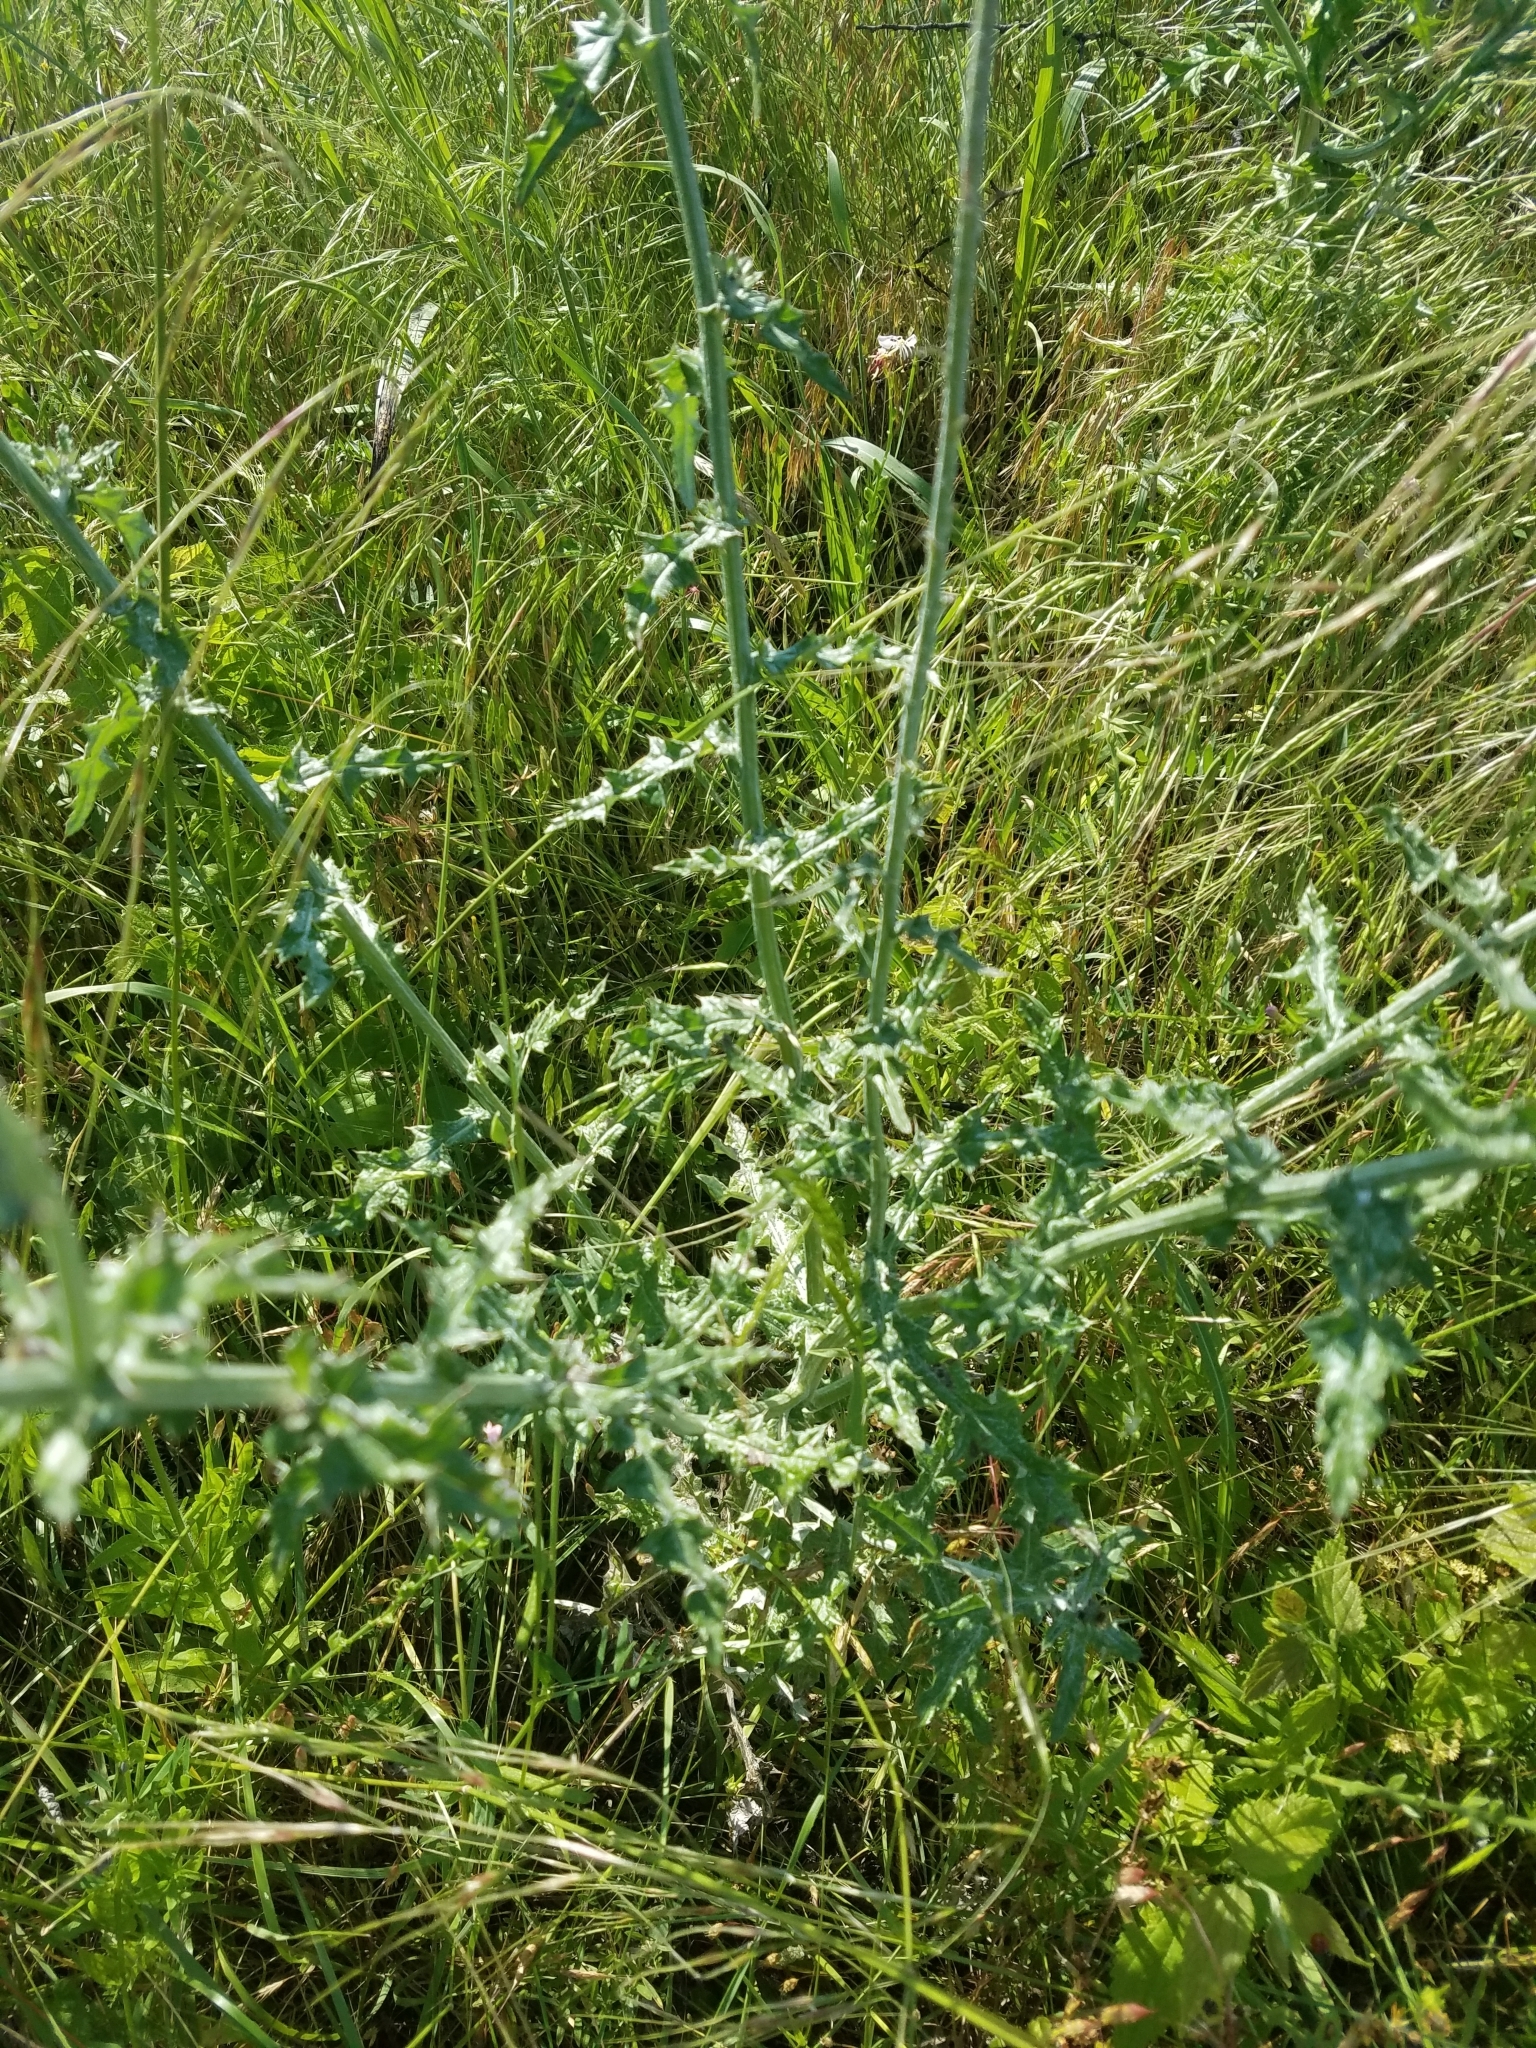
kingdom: Plantae
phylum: Tracheophyta
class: Magnoliopsida
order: Asterales
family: Asteraceae
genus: Cirsium
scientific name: Cirsium texanum
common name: Texas purple thistle
